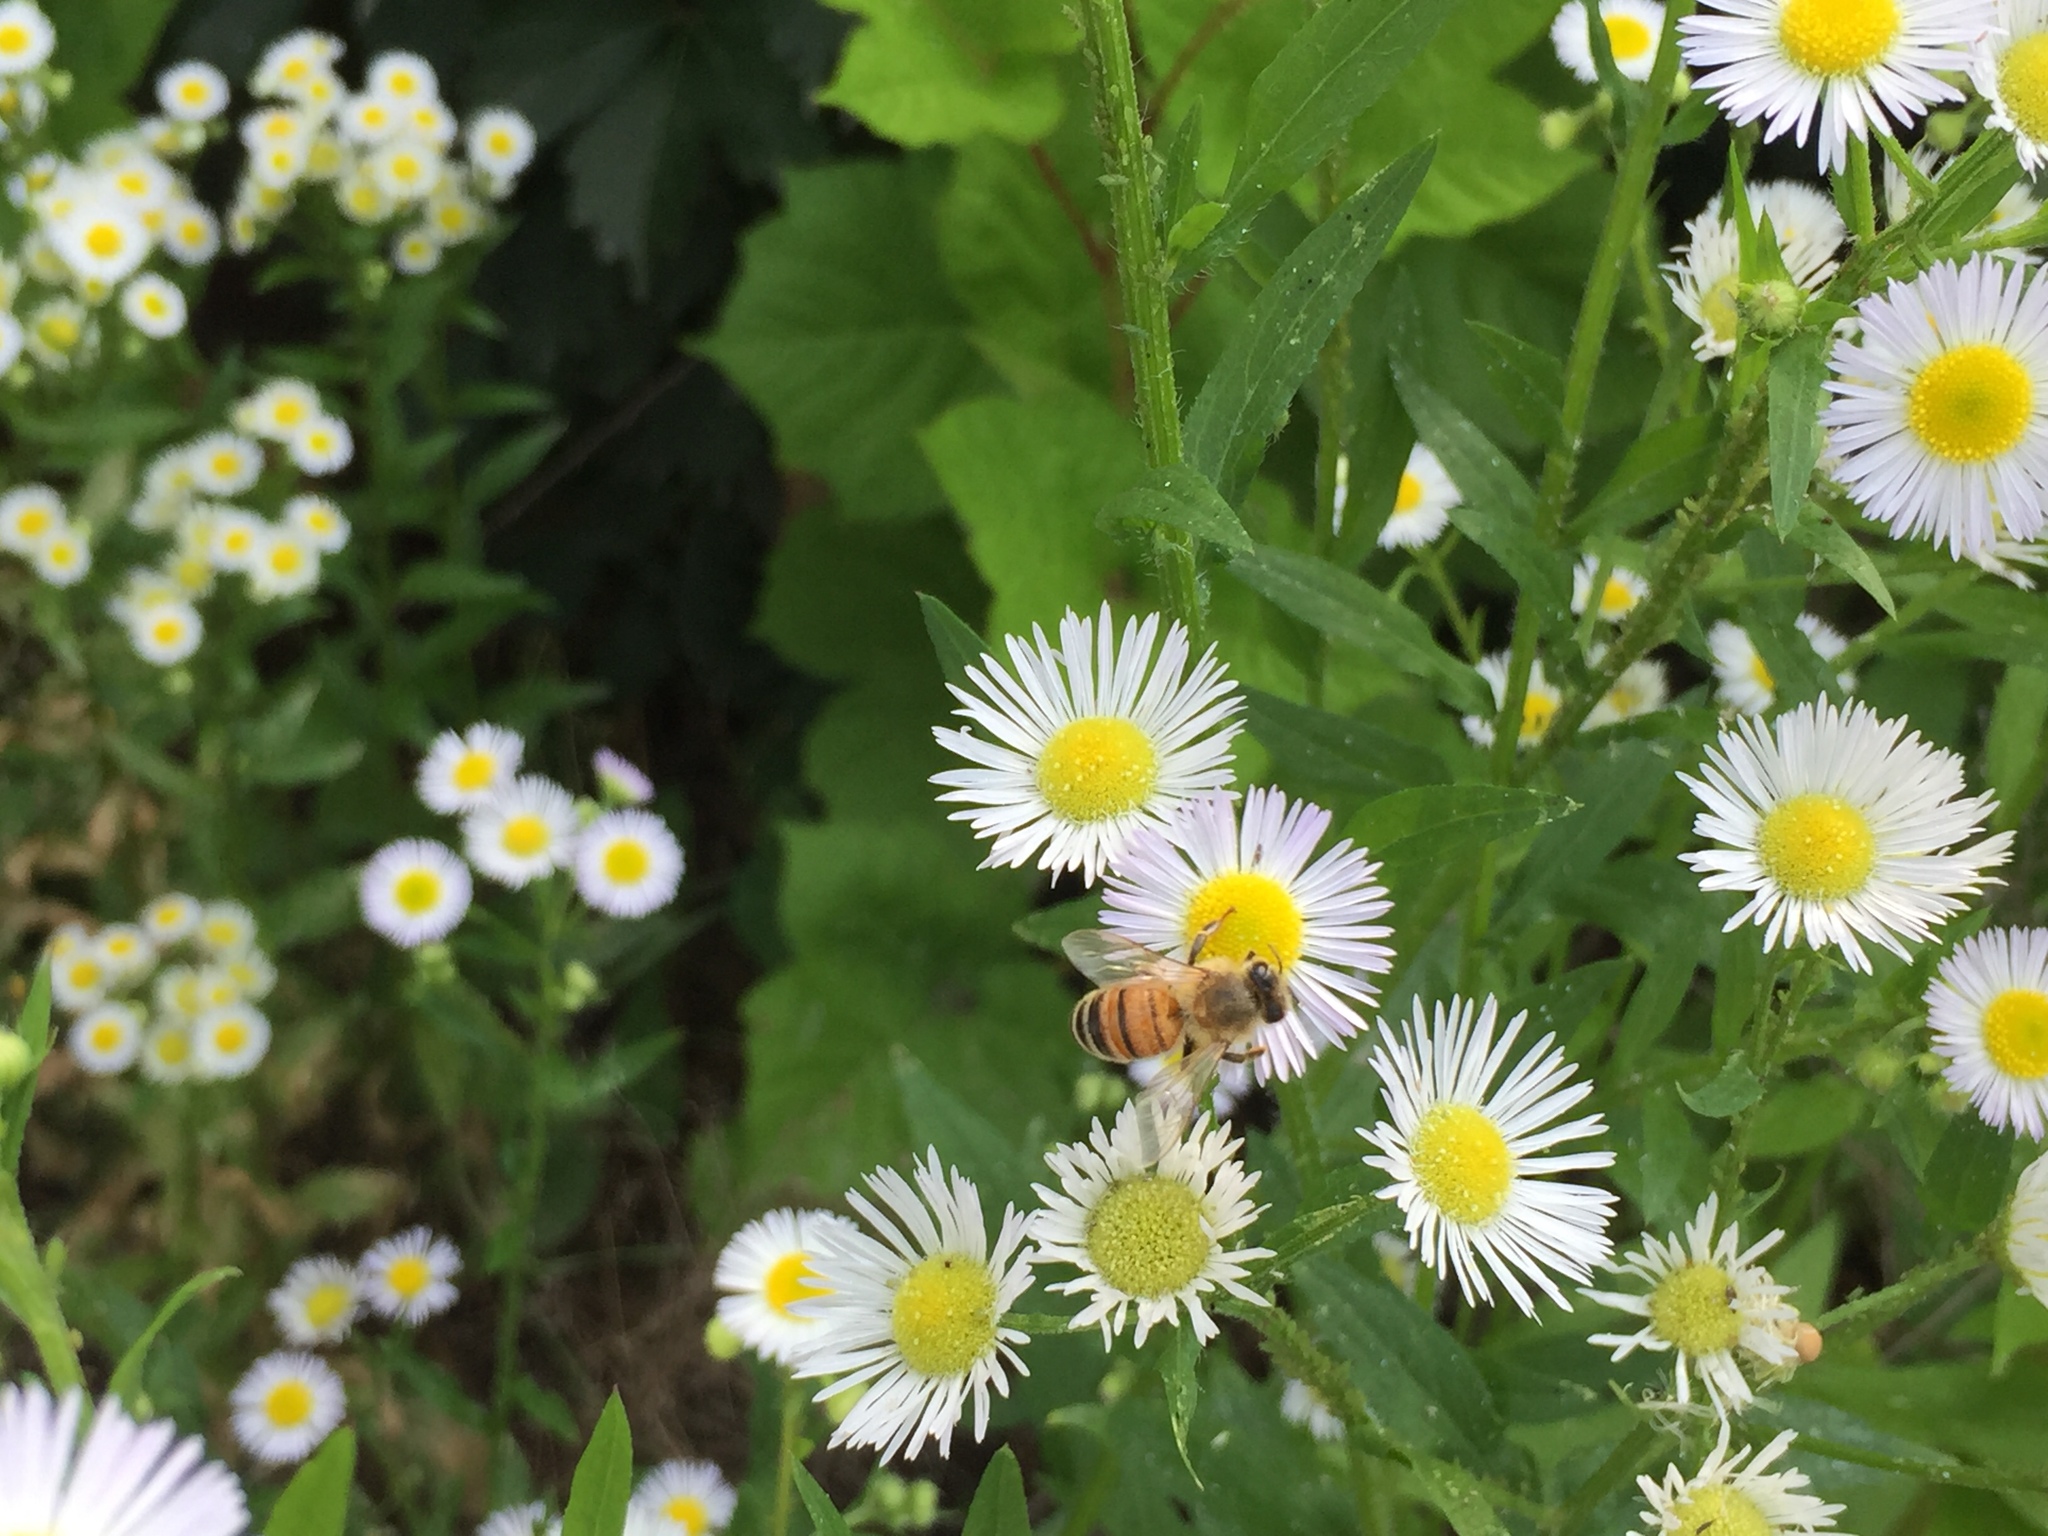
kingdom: Animalia
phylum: Arthropoda
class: Insecta
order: Hymenoptera
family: Apidae
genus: Apis
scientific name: Apis mellifera
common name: Honey bee
